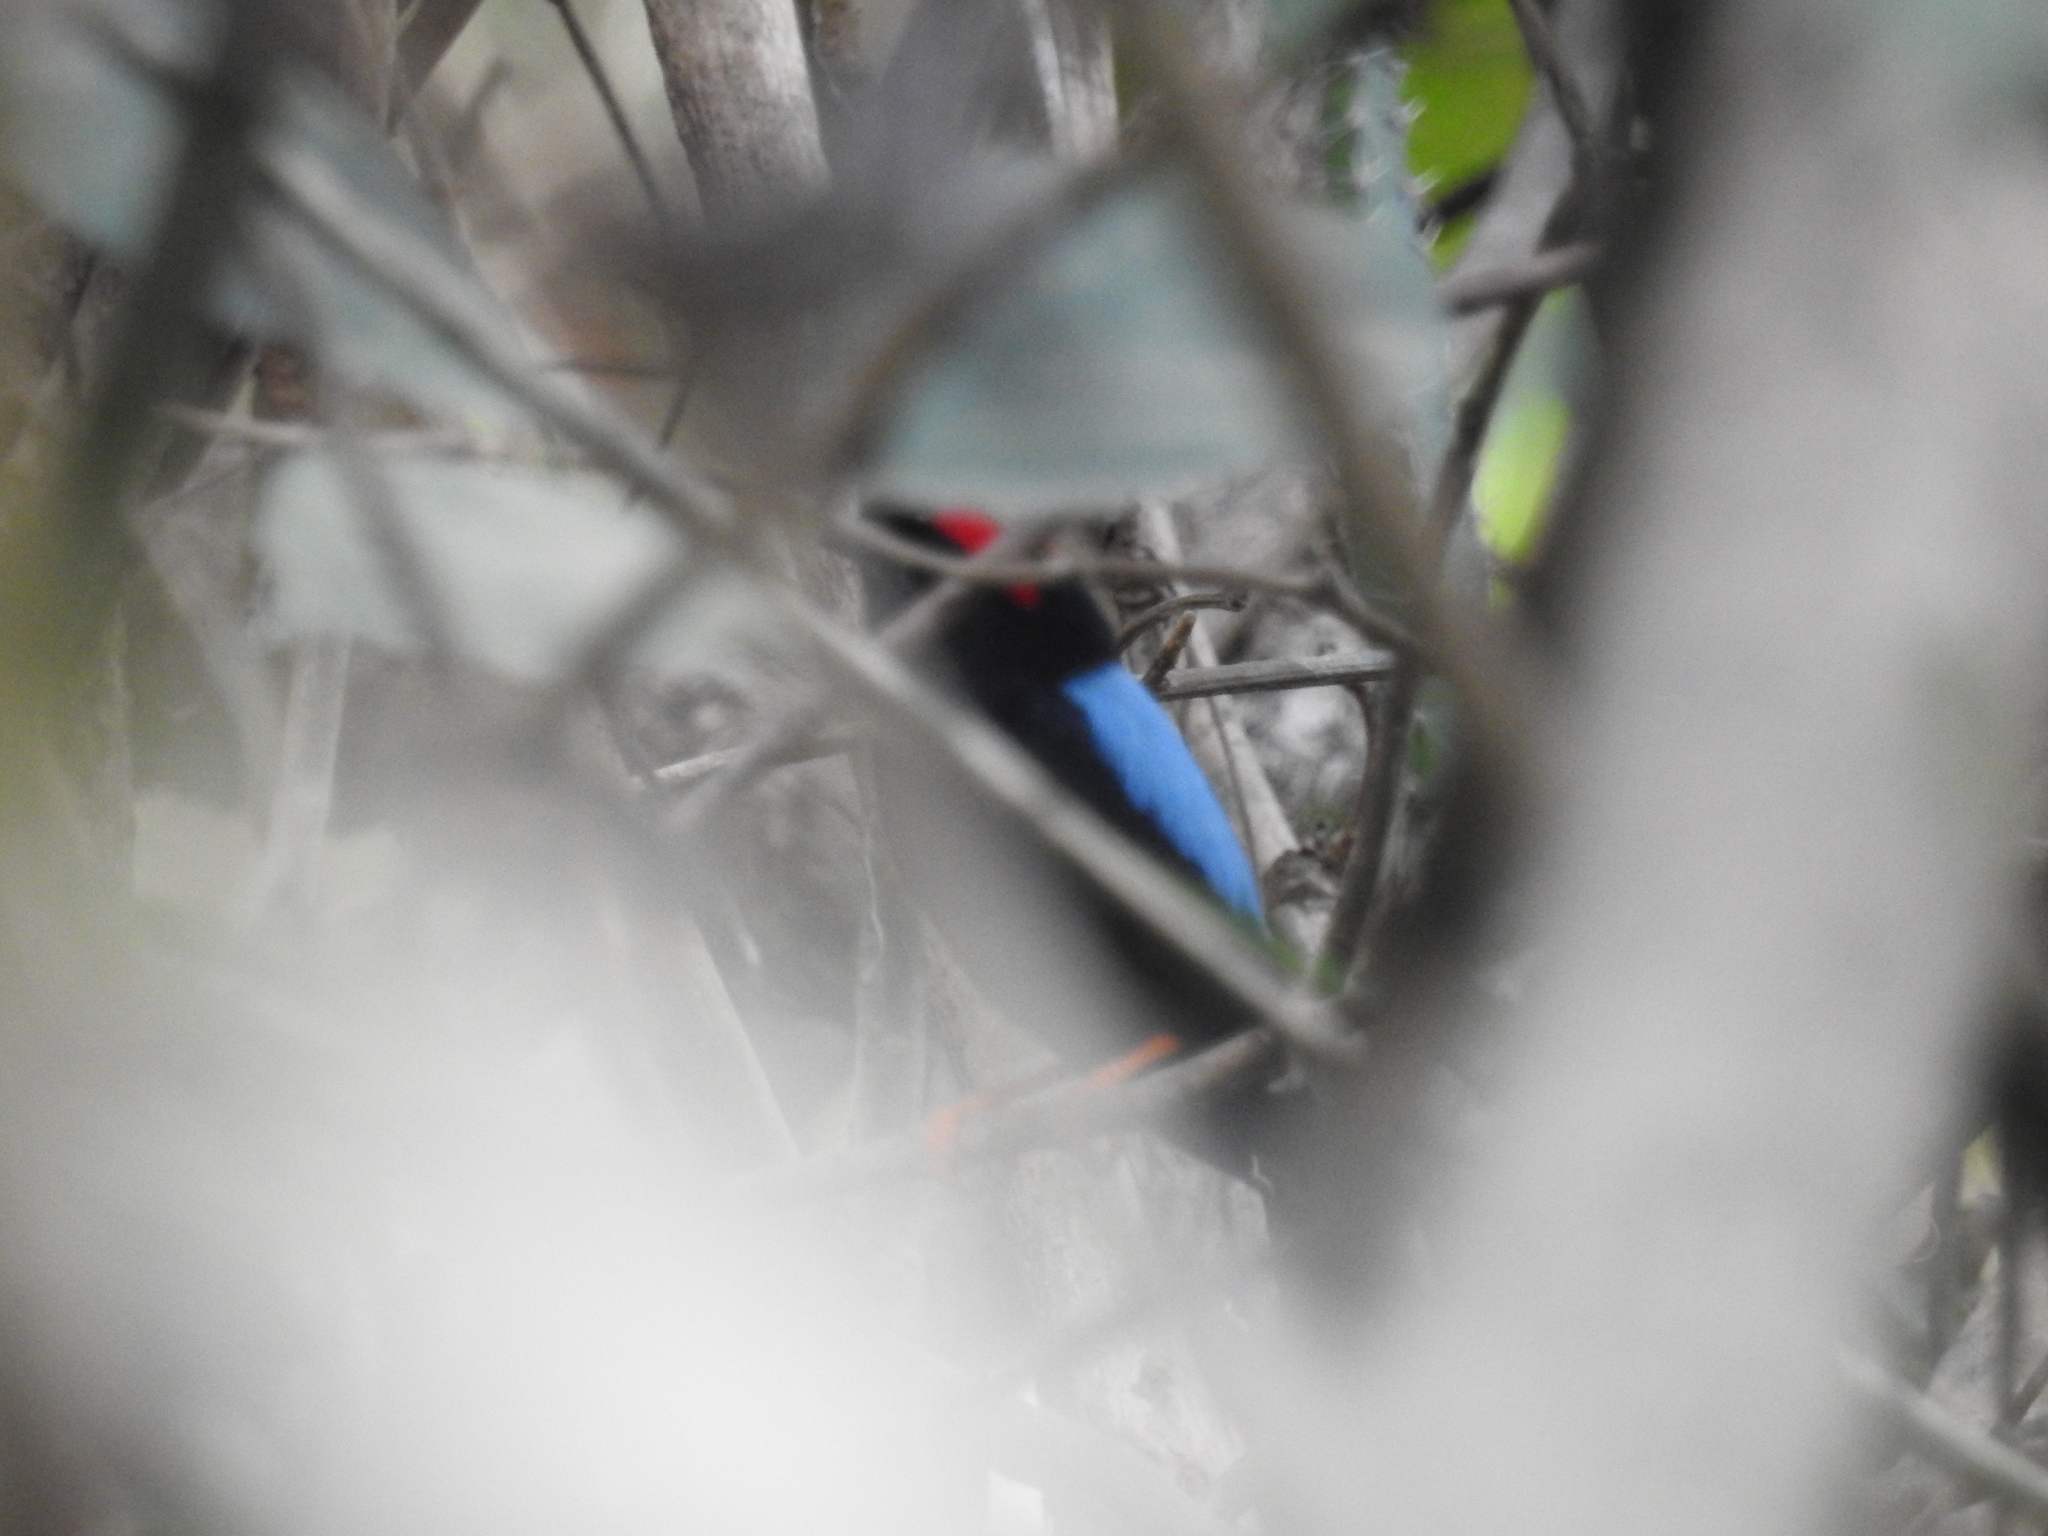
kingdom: Animalia
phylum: Chordata
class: Aves
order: Passeriformes
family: Pipridae
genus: Chiroxiphia
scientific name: Chiroxiphia linearis
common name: Long-tailed manakin
